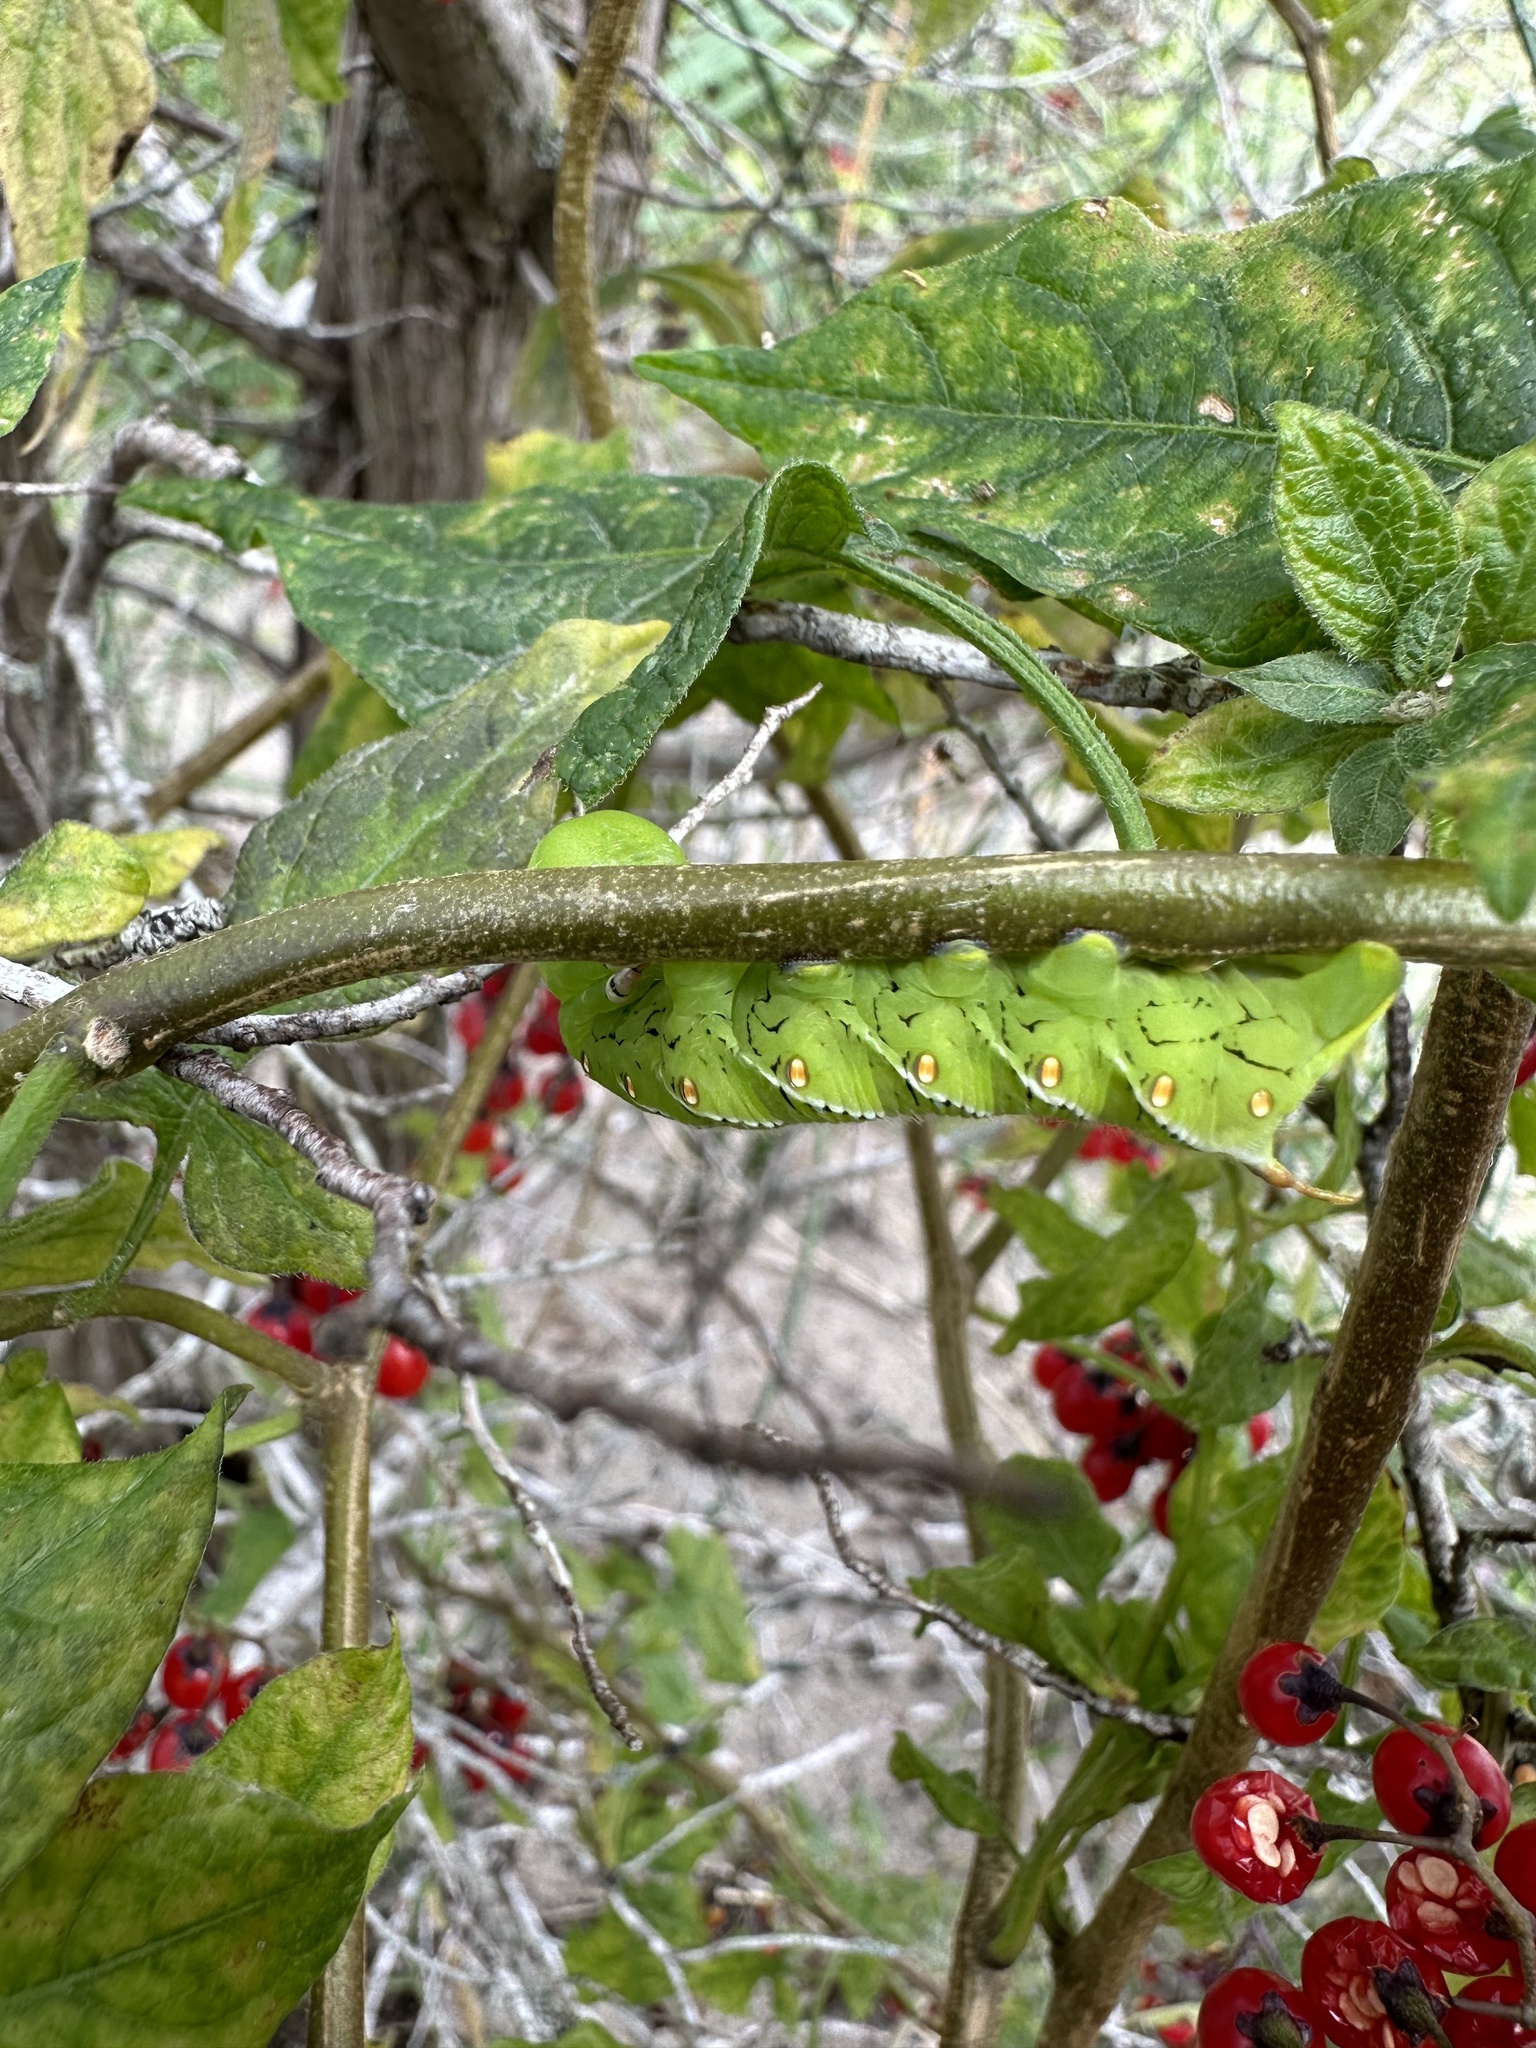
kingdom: Animalia
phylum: Arthropoda
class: Insecta
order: Lepidoptera
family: Sphingidae
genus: Manduca
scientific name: Manduca sexta
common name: Carolina sphinx
